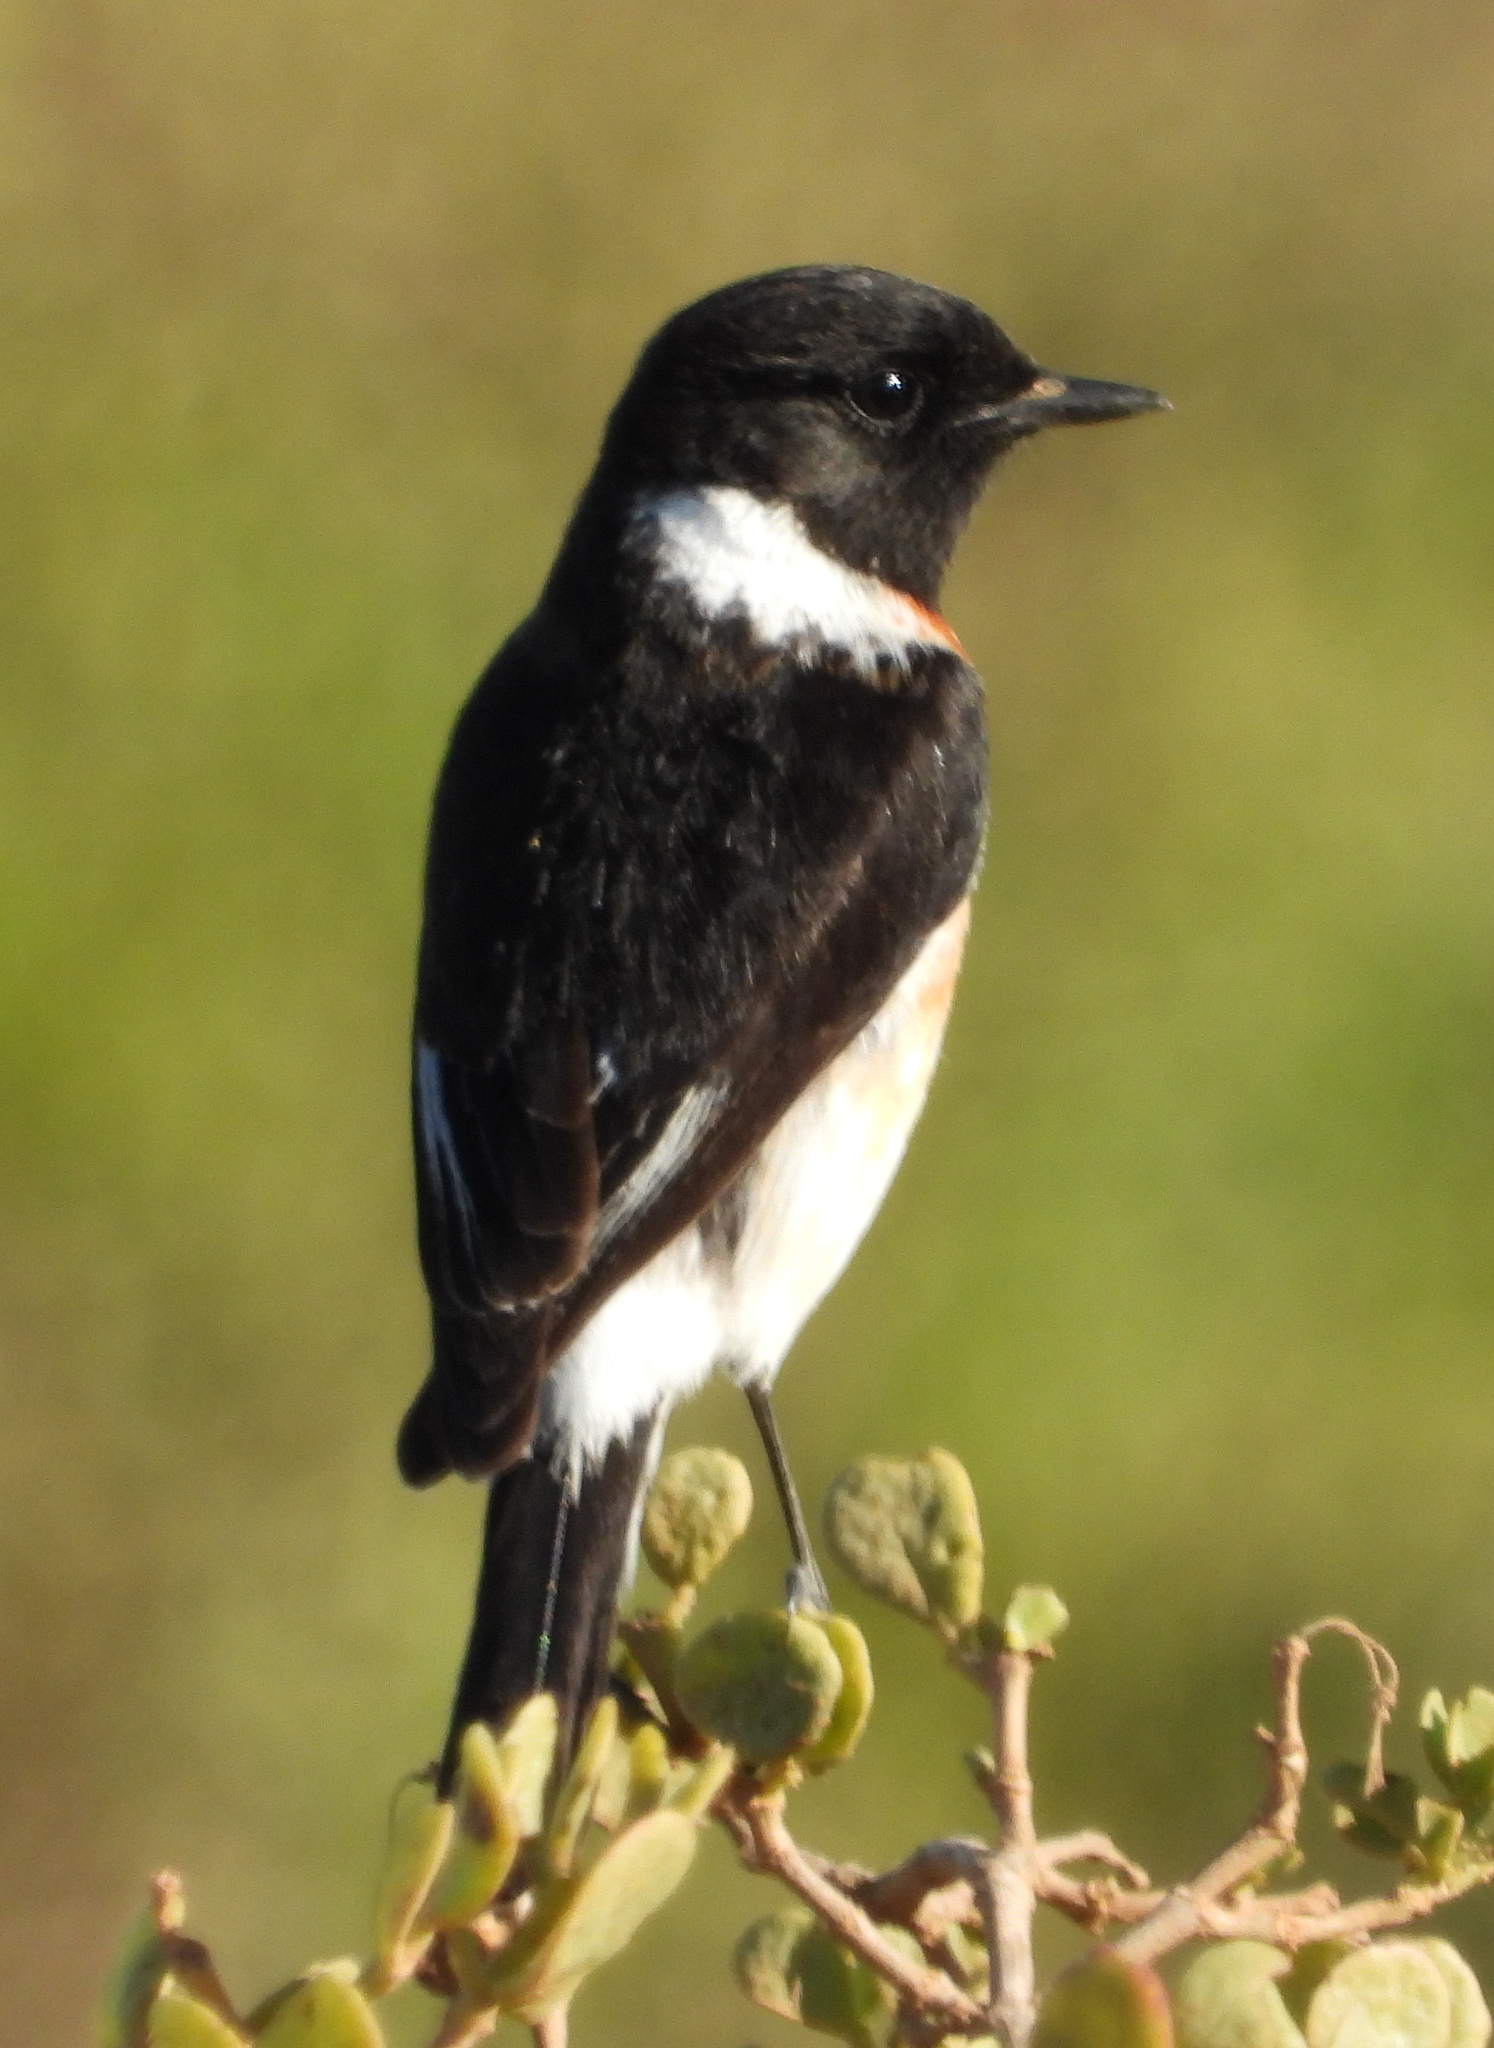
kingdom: Animalia
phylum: Chordata
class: Aves
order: Passeriformes
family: Muscicapidae
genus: Saxicola
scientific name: Saxicola torquatus
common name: African stonechat
